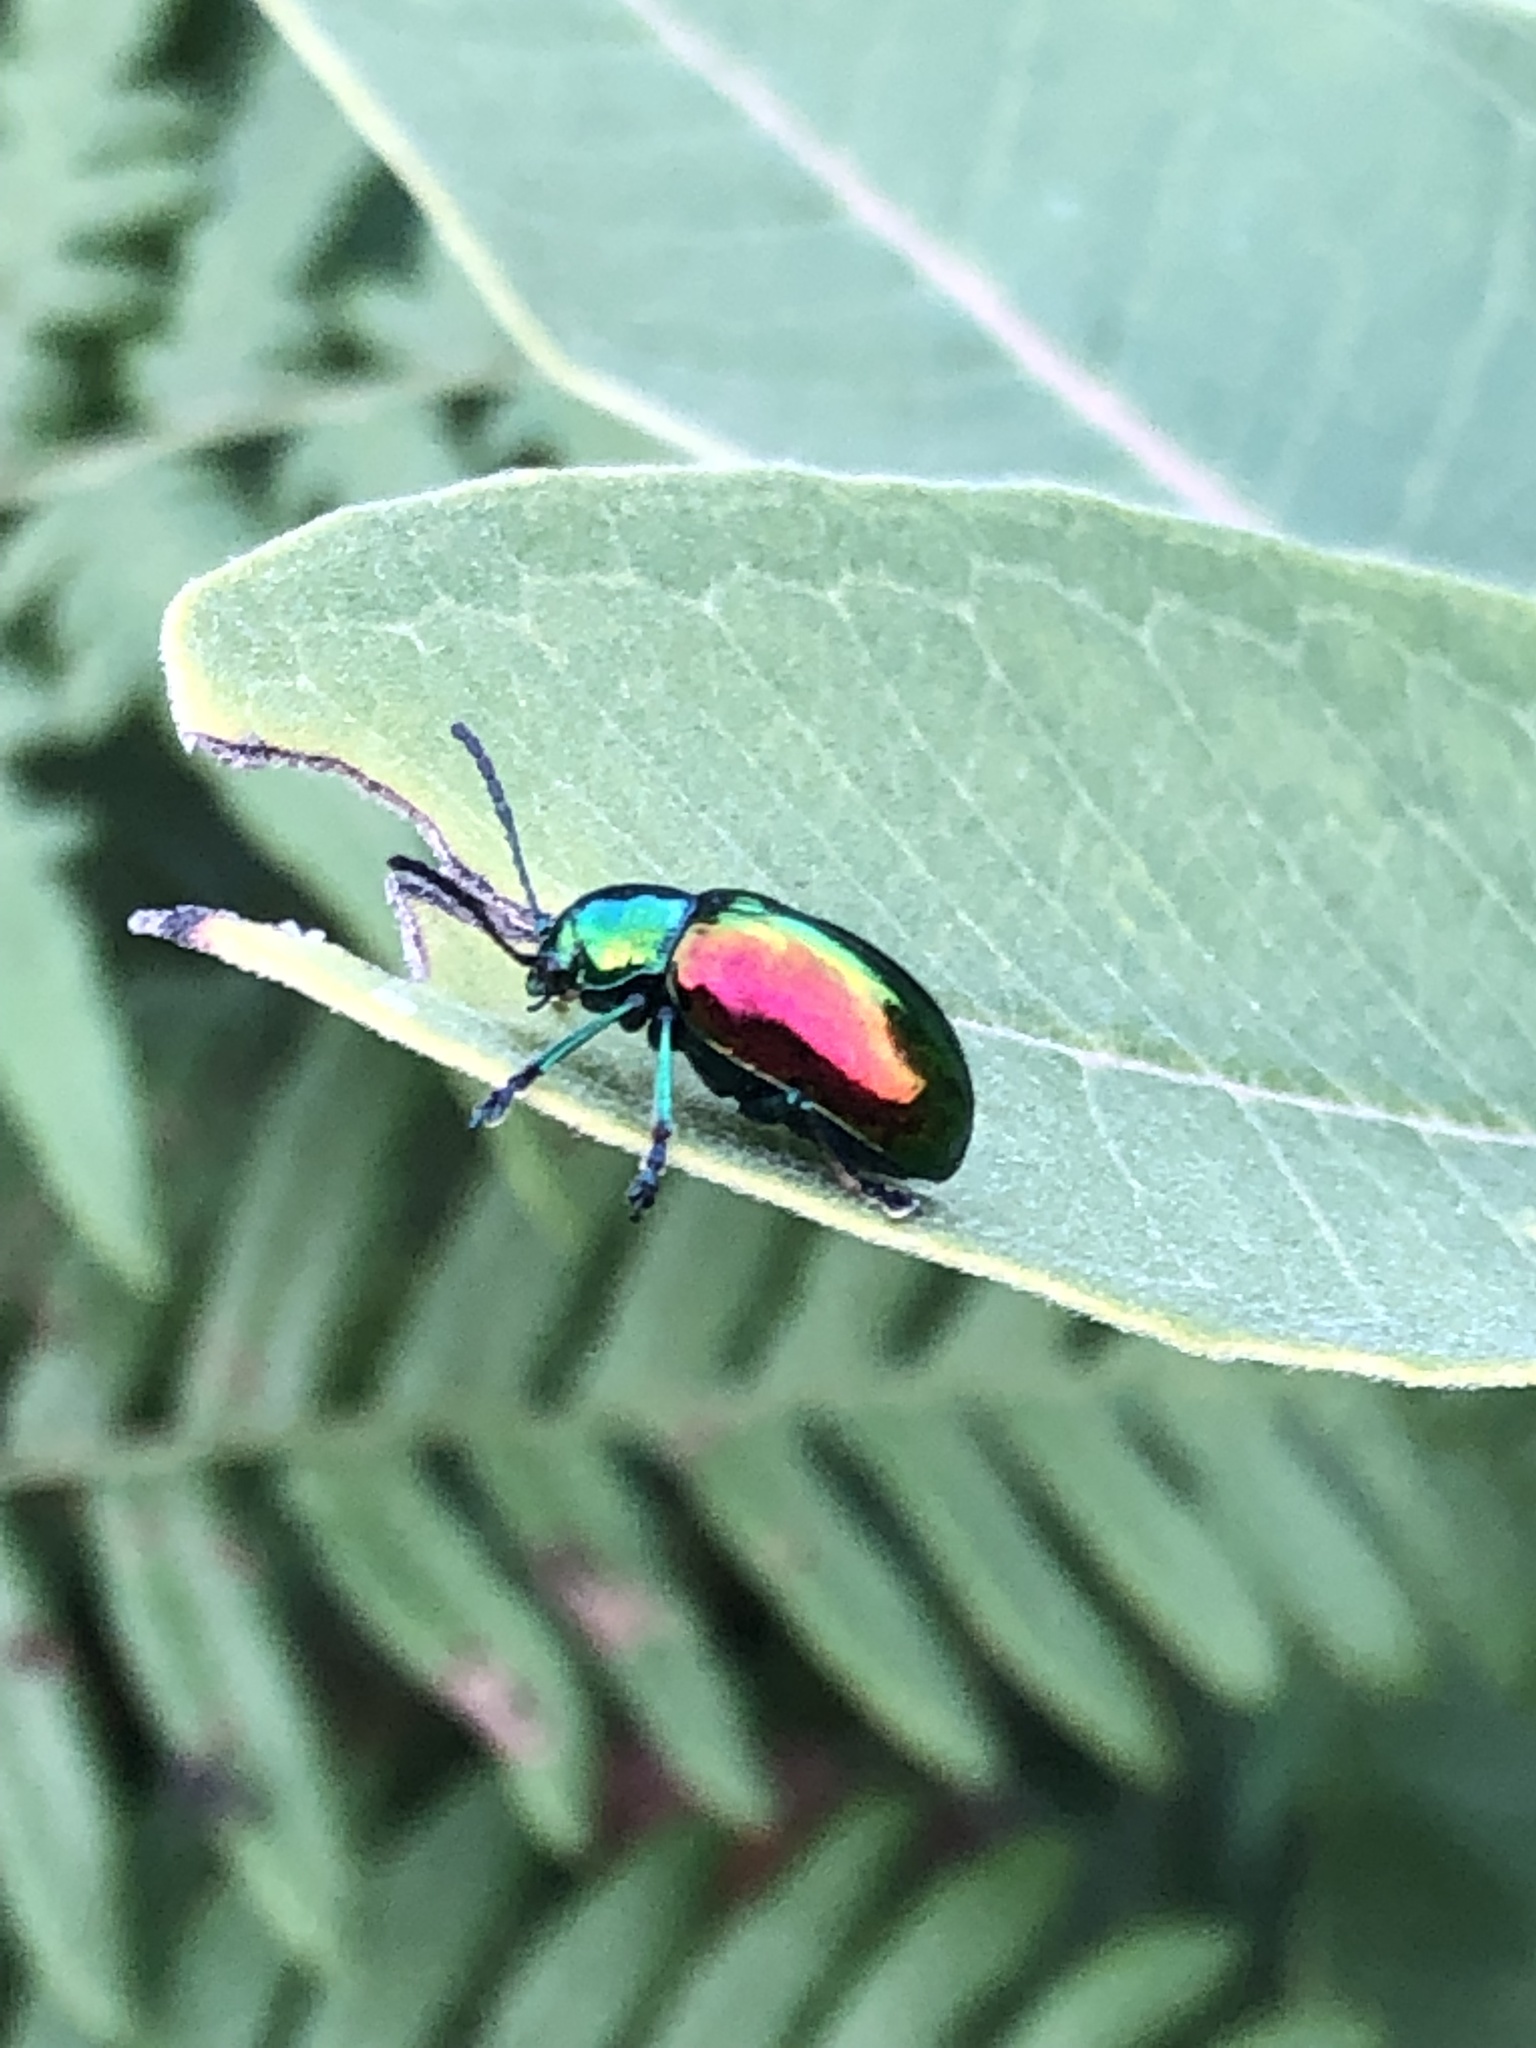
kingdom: Animalia
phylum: Arthropoda
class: Insecta
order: Coleoptera
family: Chrysomelidae
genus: Chrysochus
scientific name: Chrysochus auratus
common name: Dogbane leaf beetle
